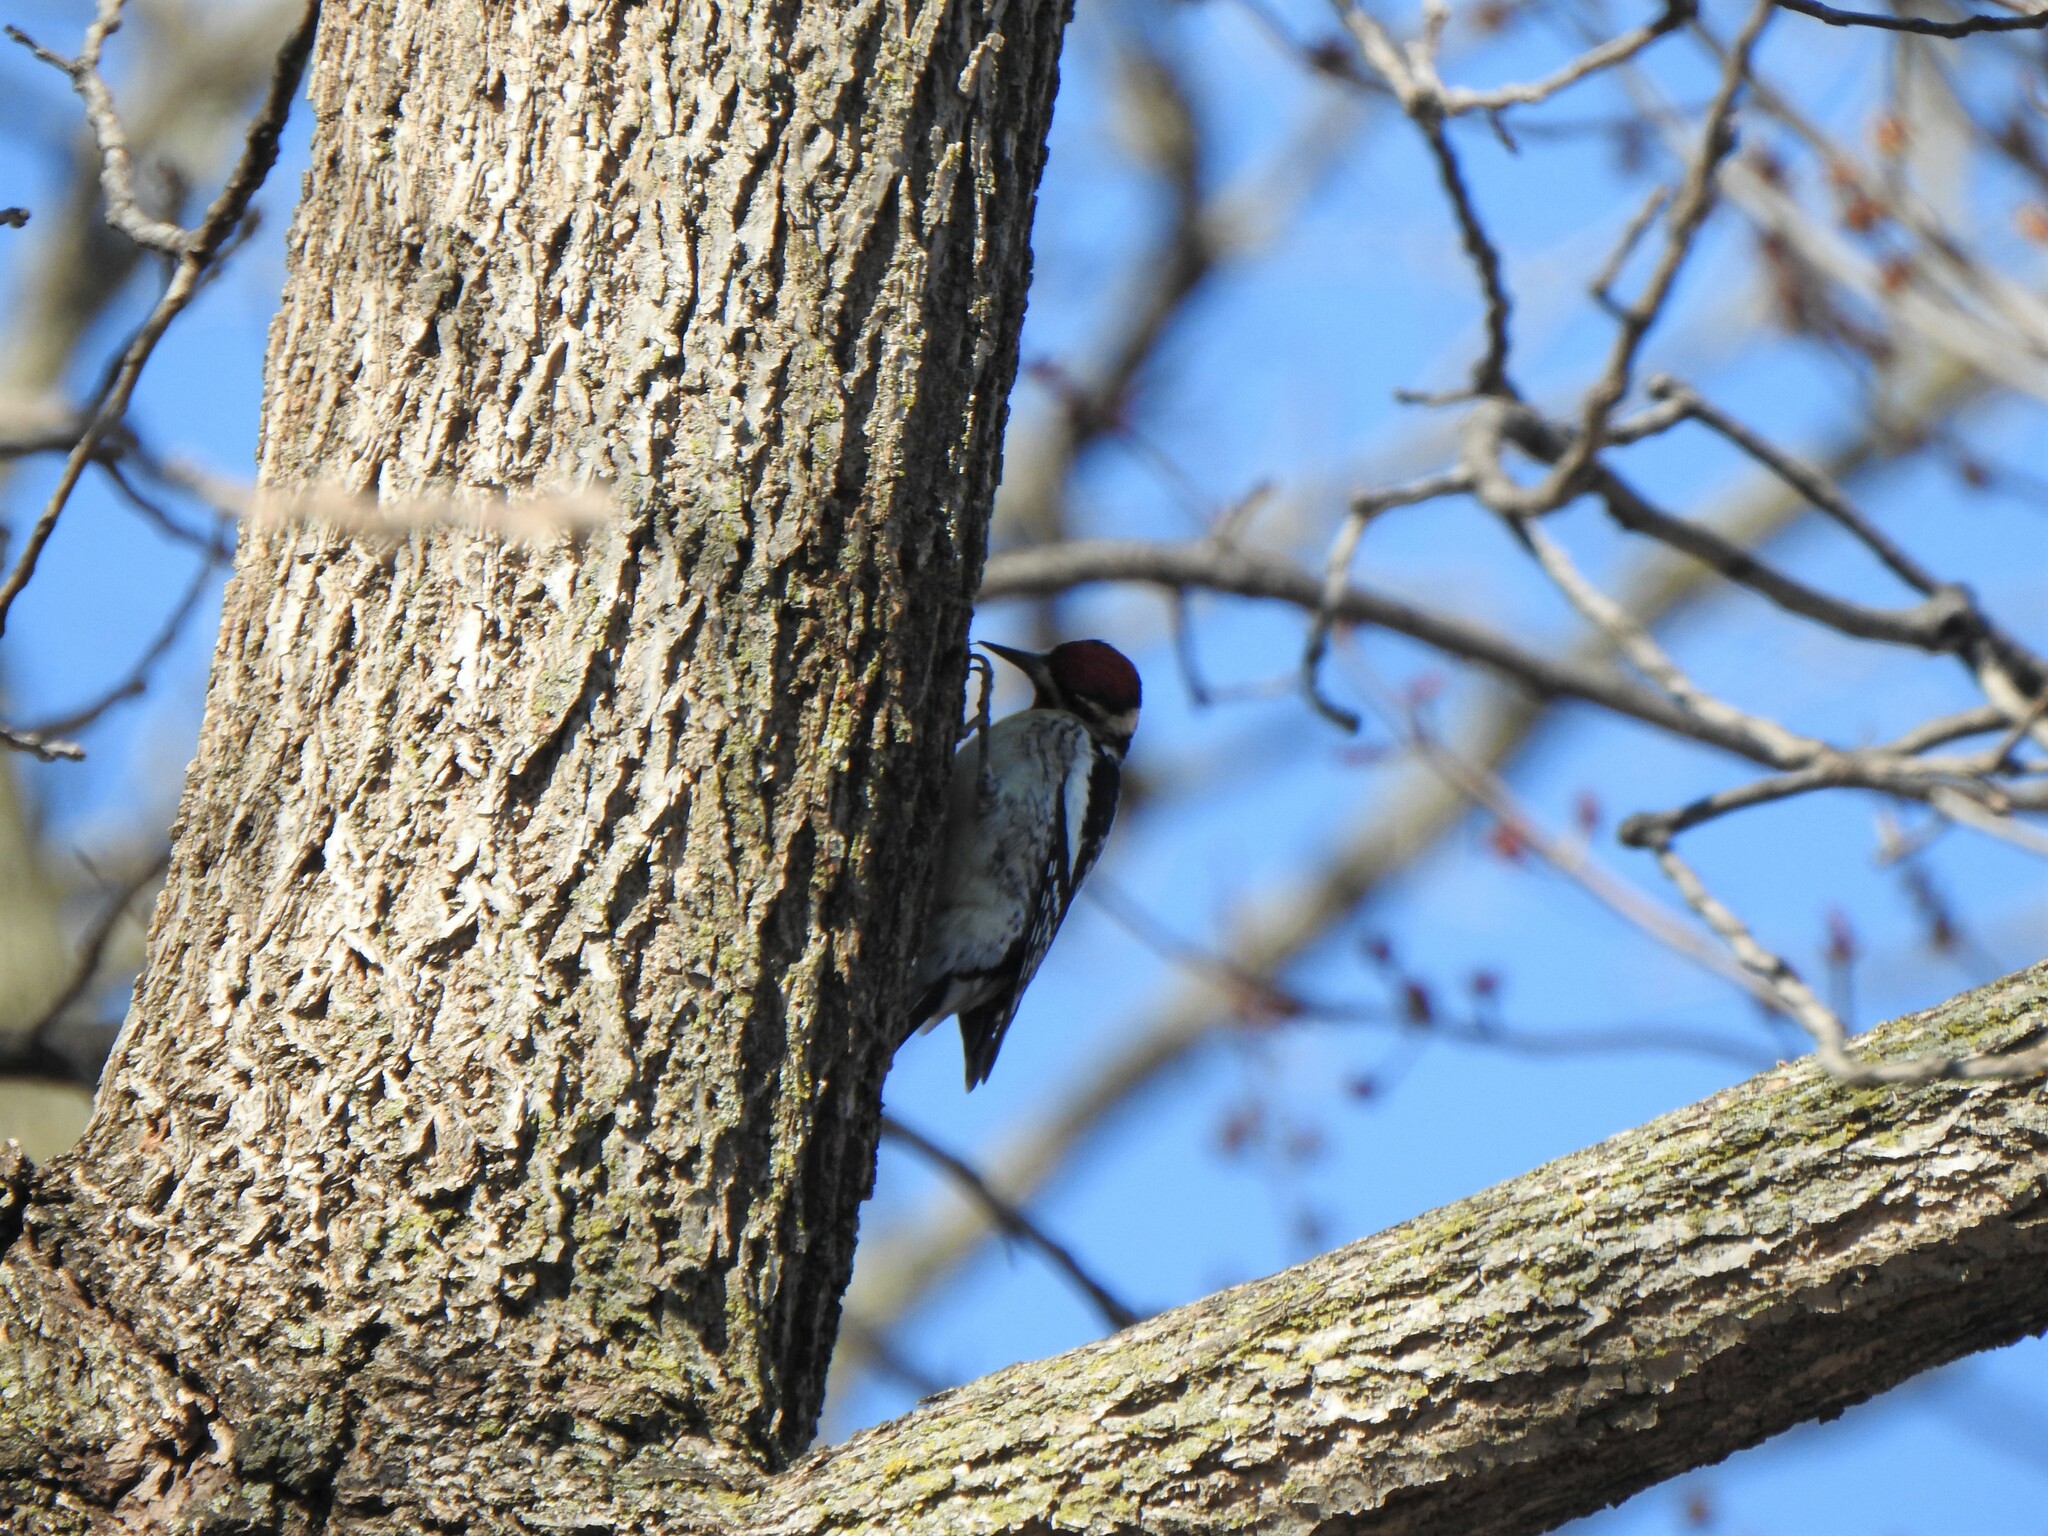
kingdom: Animalia
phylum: Chordata
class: Aves
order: Piciformes
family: Picidae
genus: Sphyrapicus
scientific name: Sphyrapicus varius
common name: Yellow-bellied sapsucker
